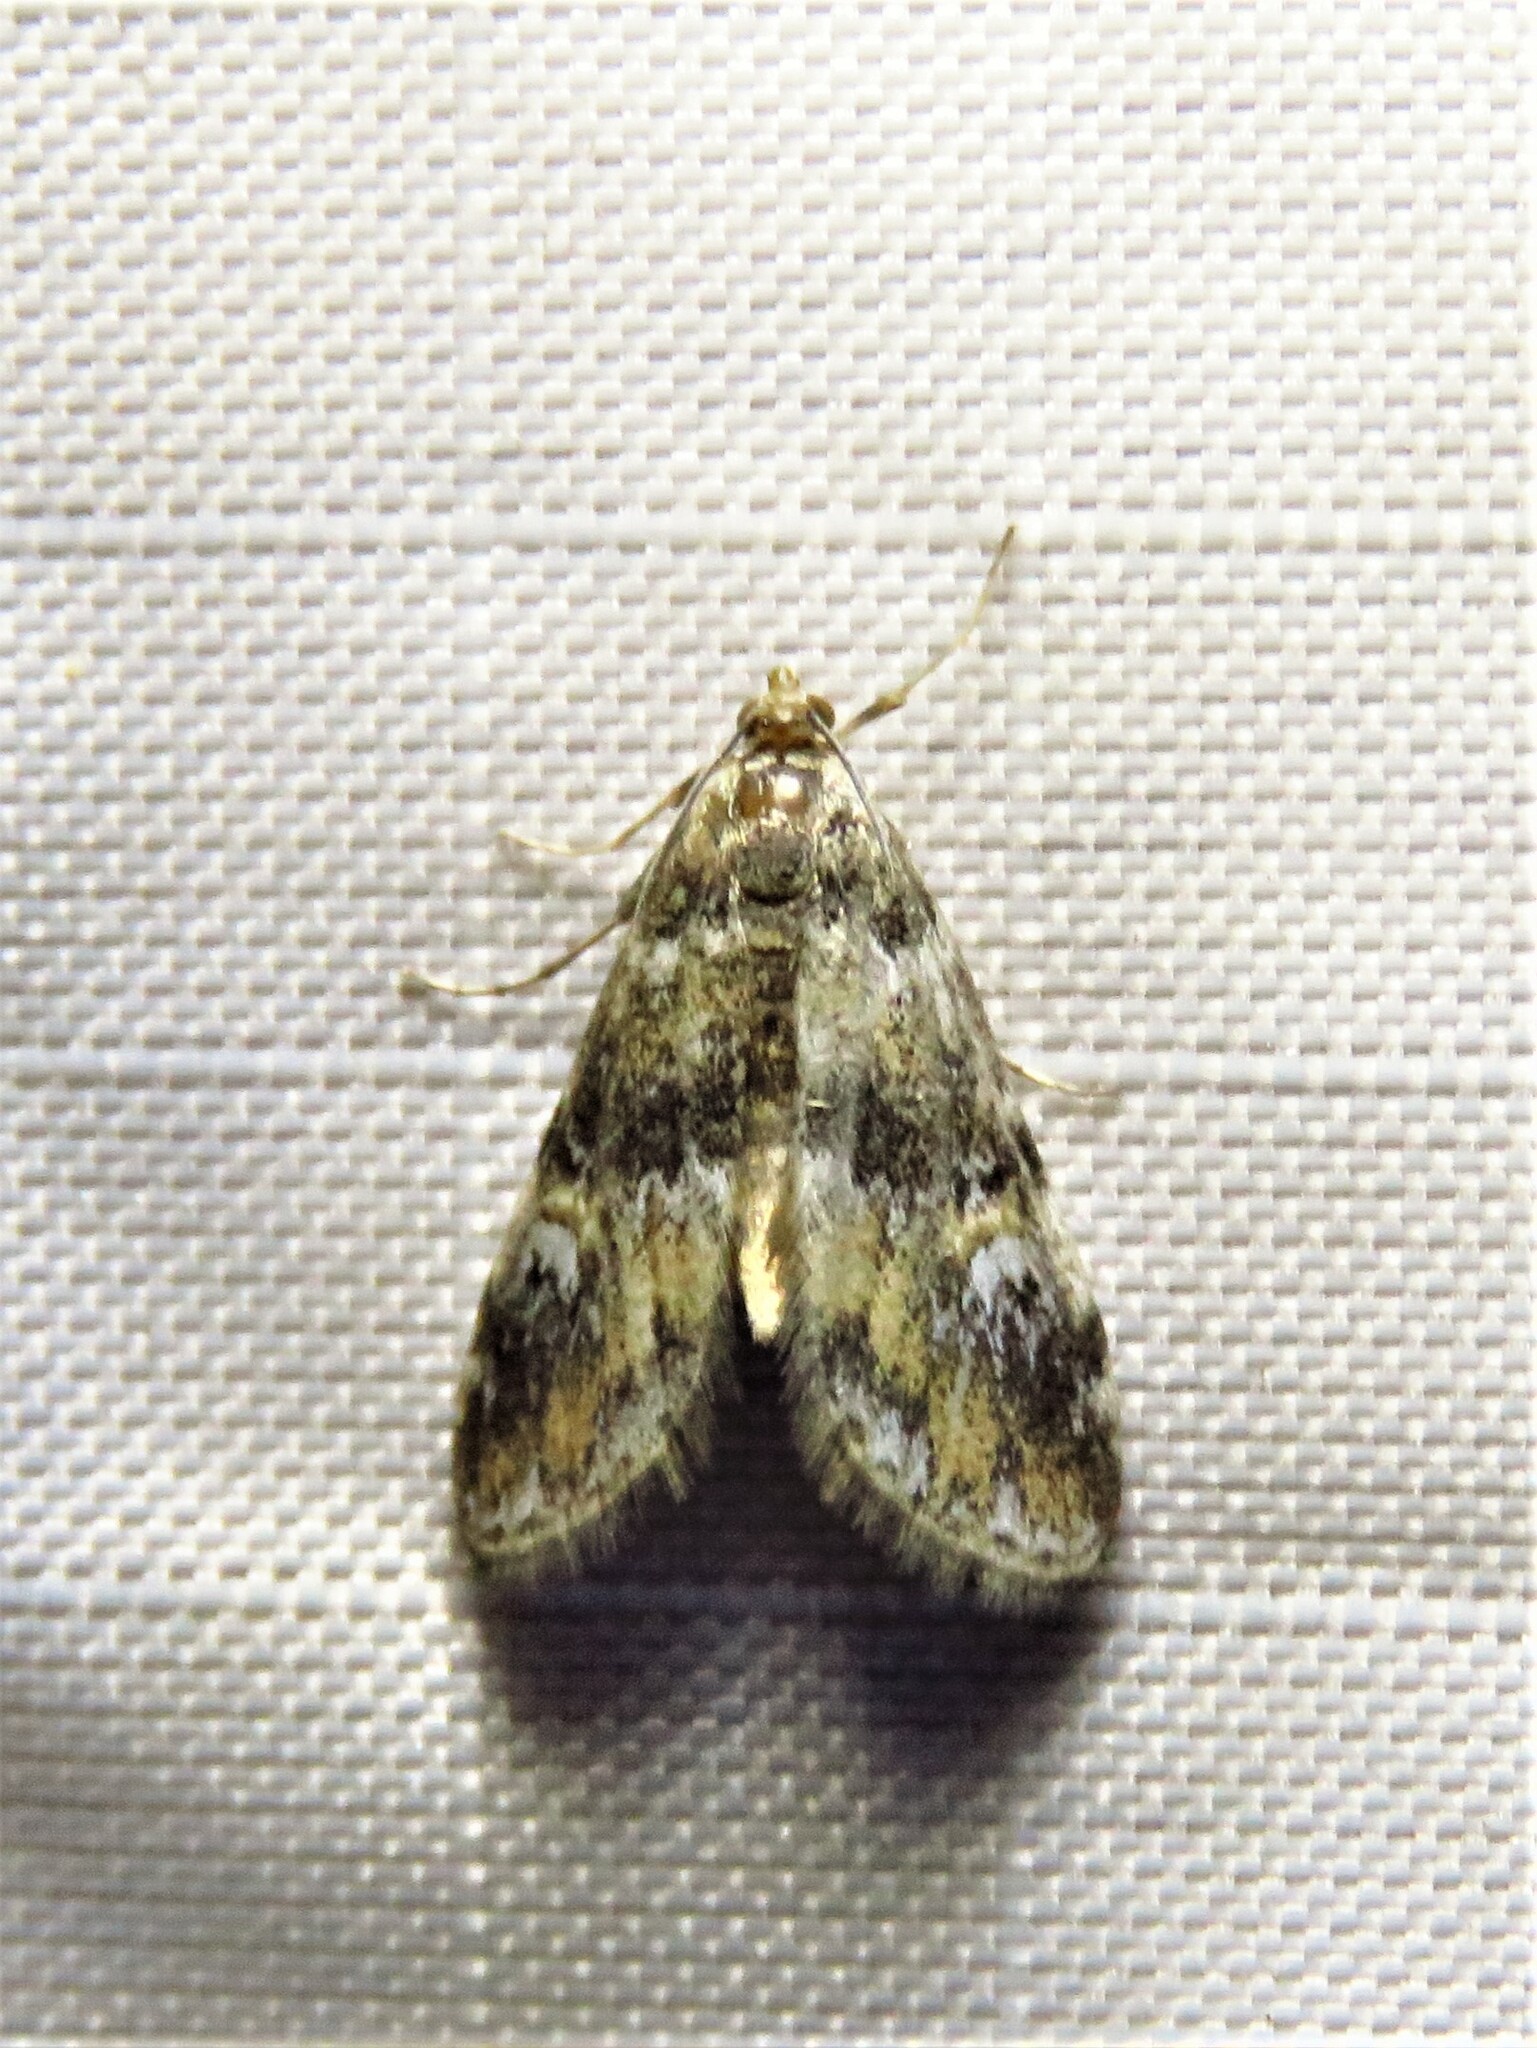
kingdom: Animalia
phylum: Arthropoda
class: Insecta
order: Lepidoptera
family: Crambidae
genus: Elophila
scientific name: Elophila obliteralis
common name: Waterlily leafcutter moth
